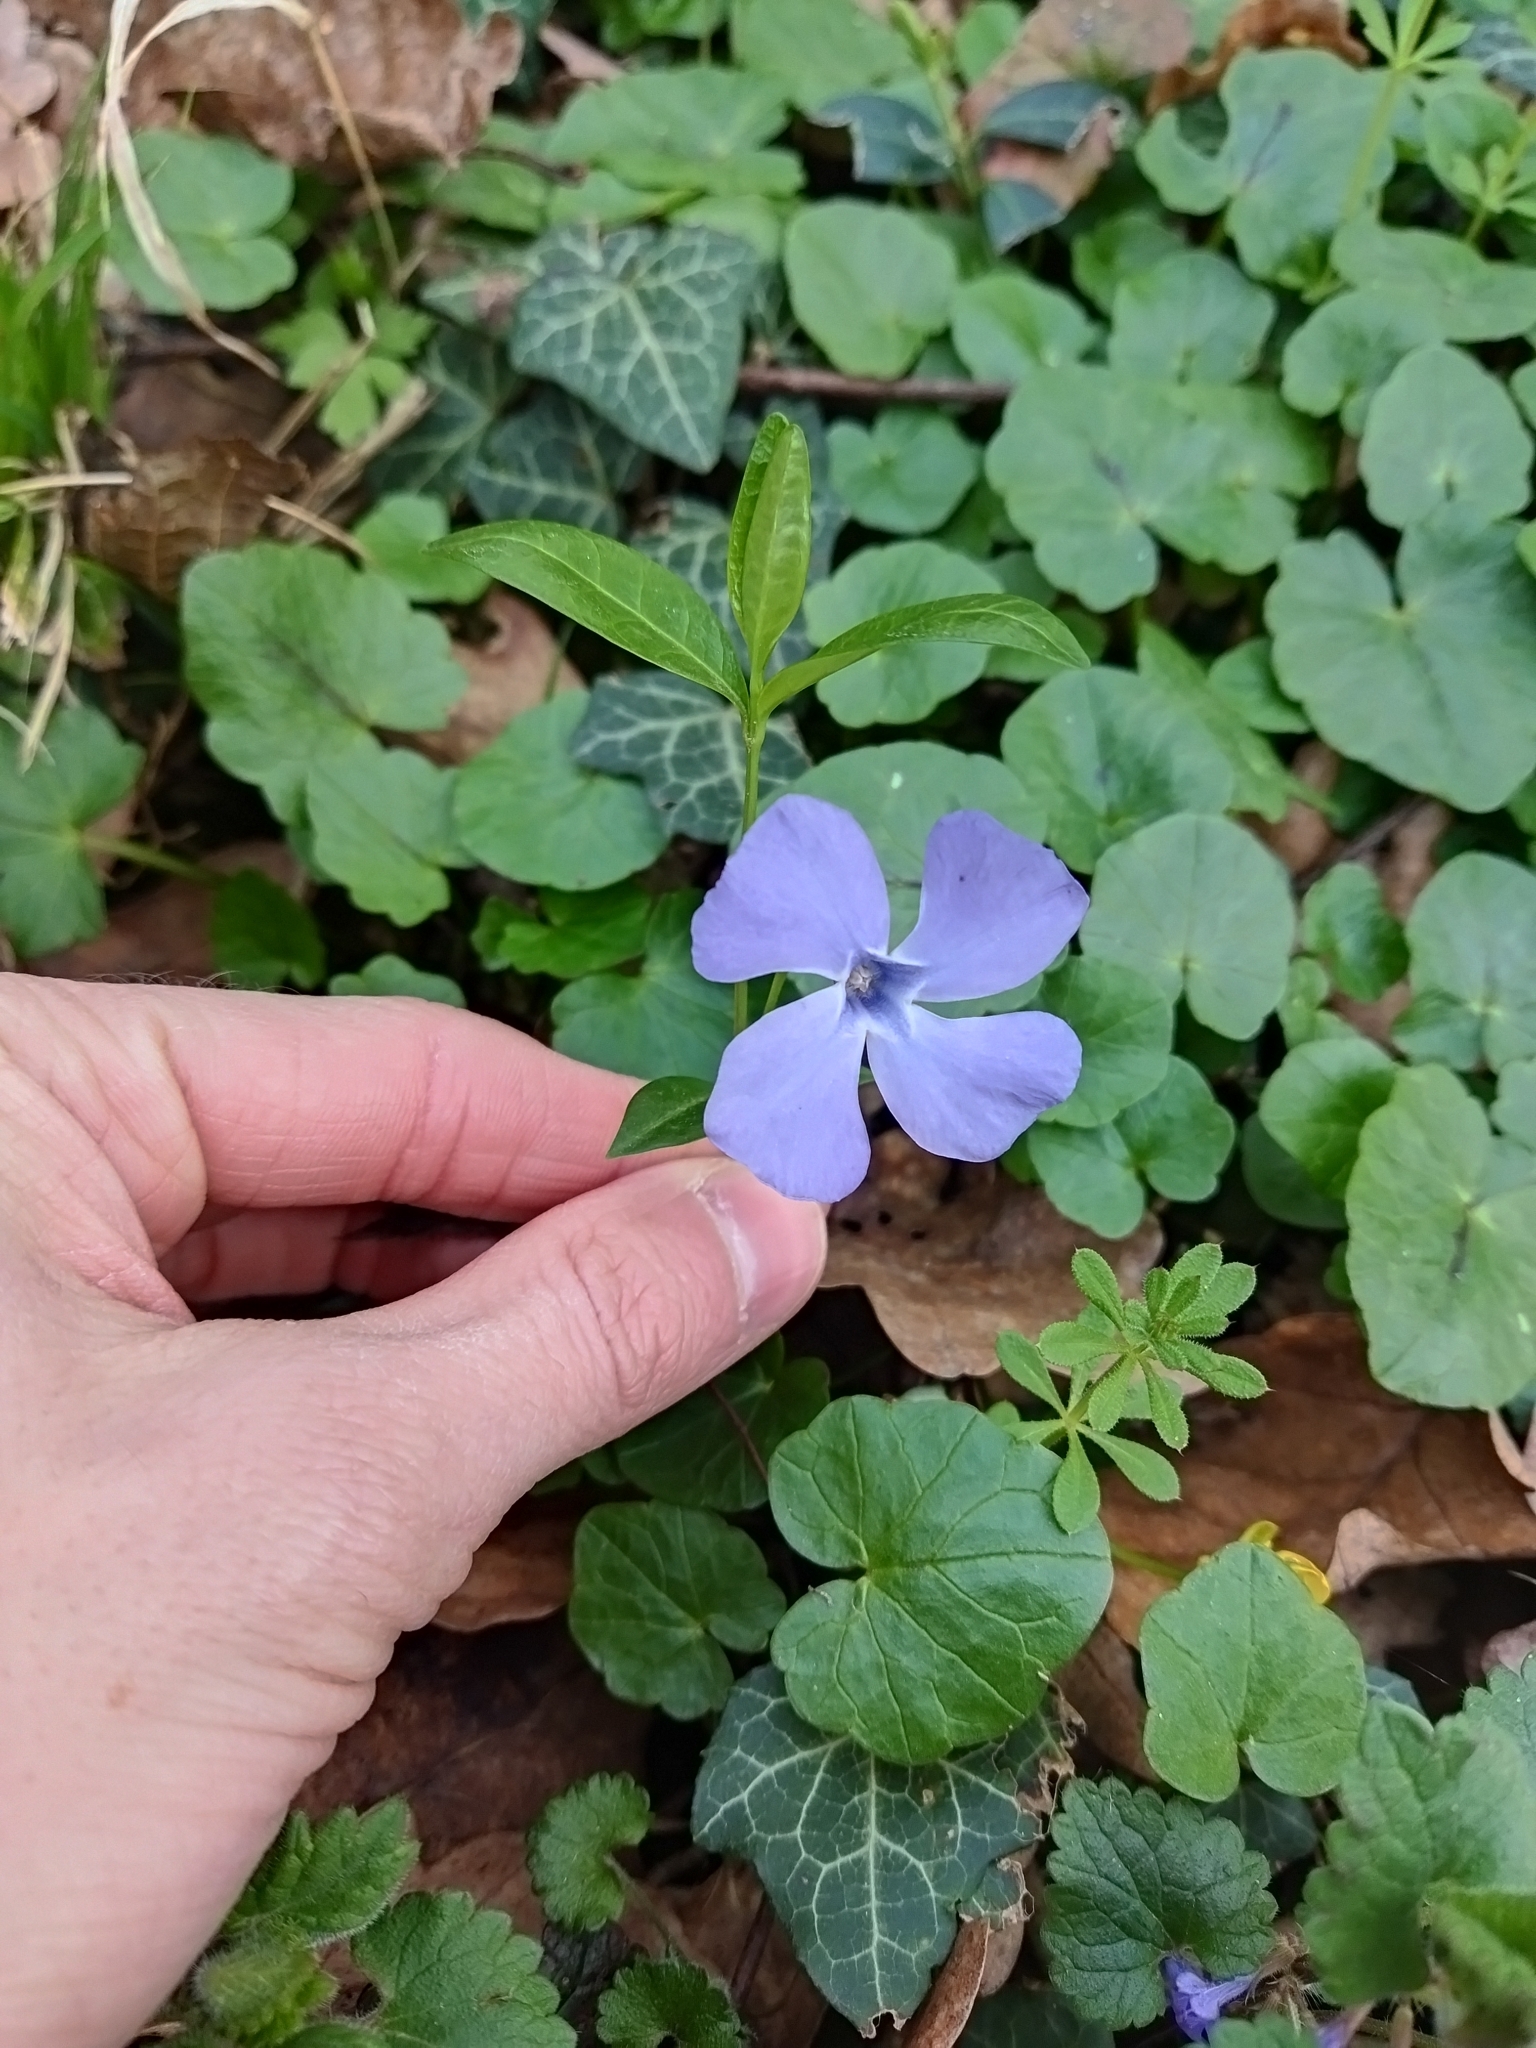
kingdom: Plantae
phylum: Tracheophyta
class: Magnoliopsida
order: Gentianales
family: Apocynaceae
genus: Vinca
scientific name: Vinca minor
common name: Lesser periwinkle
